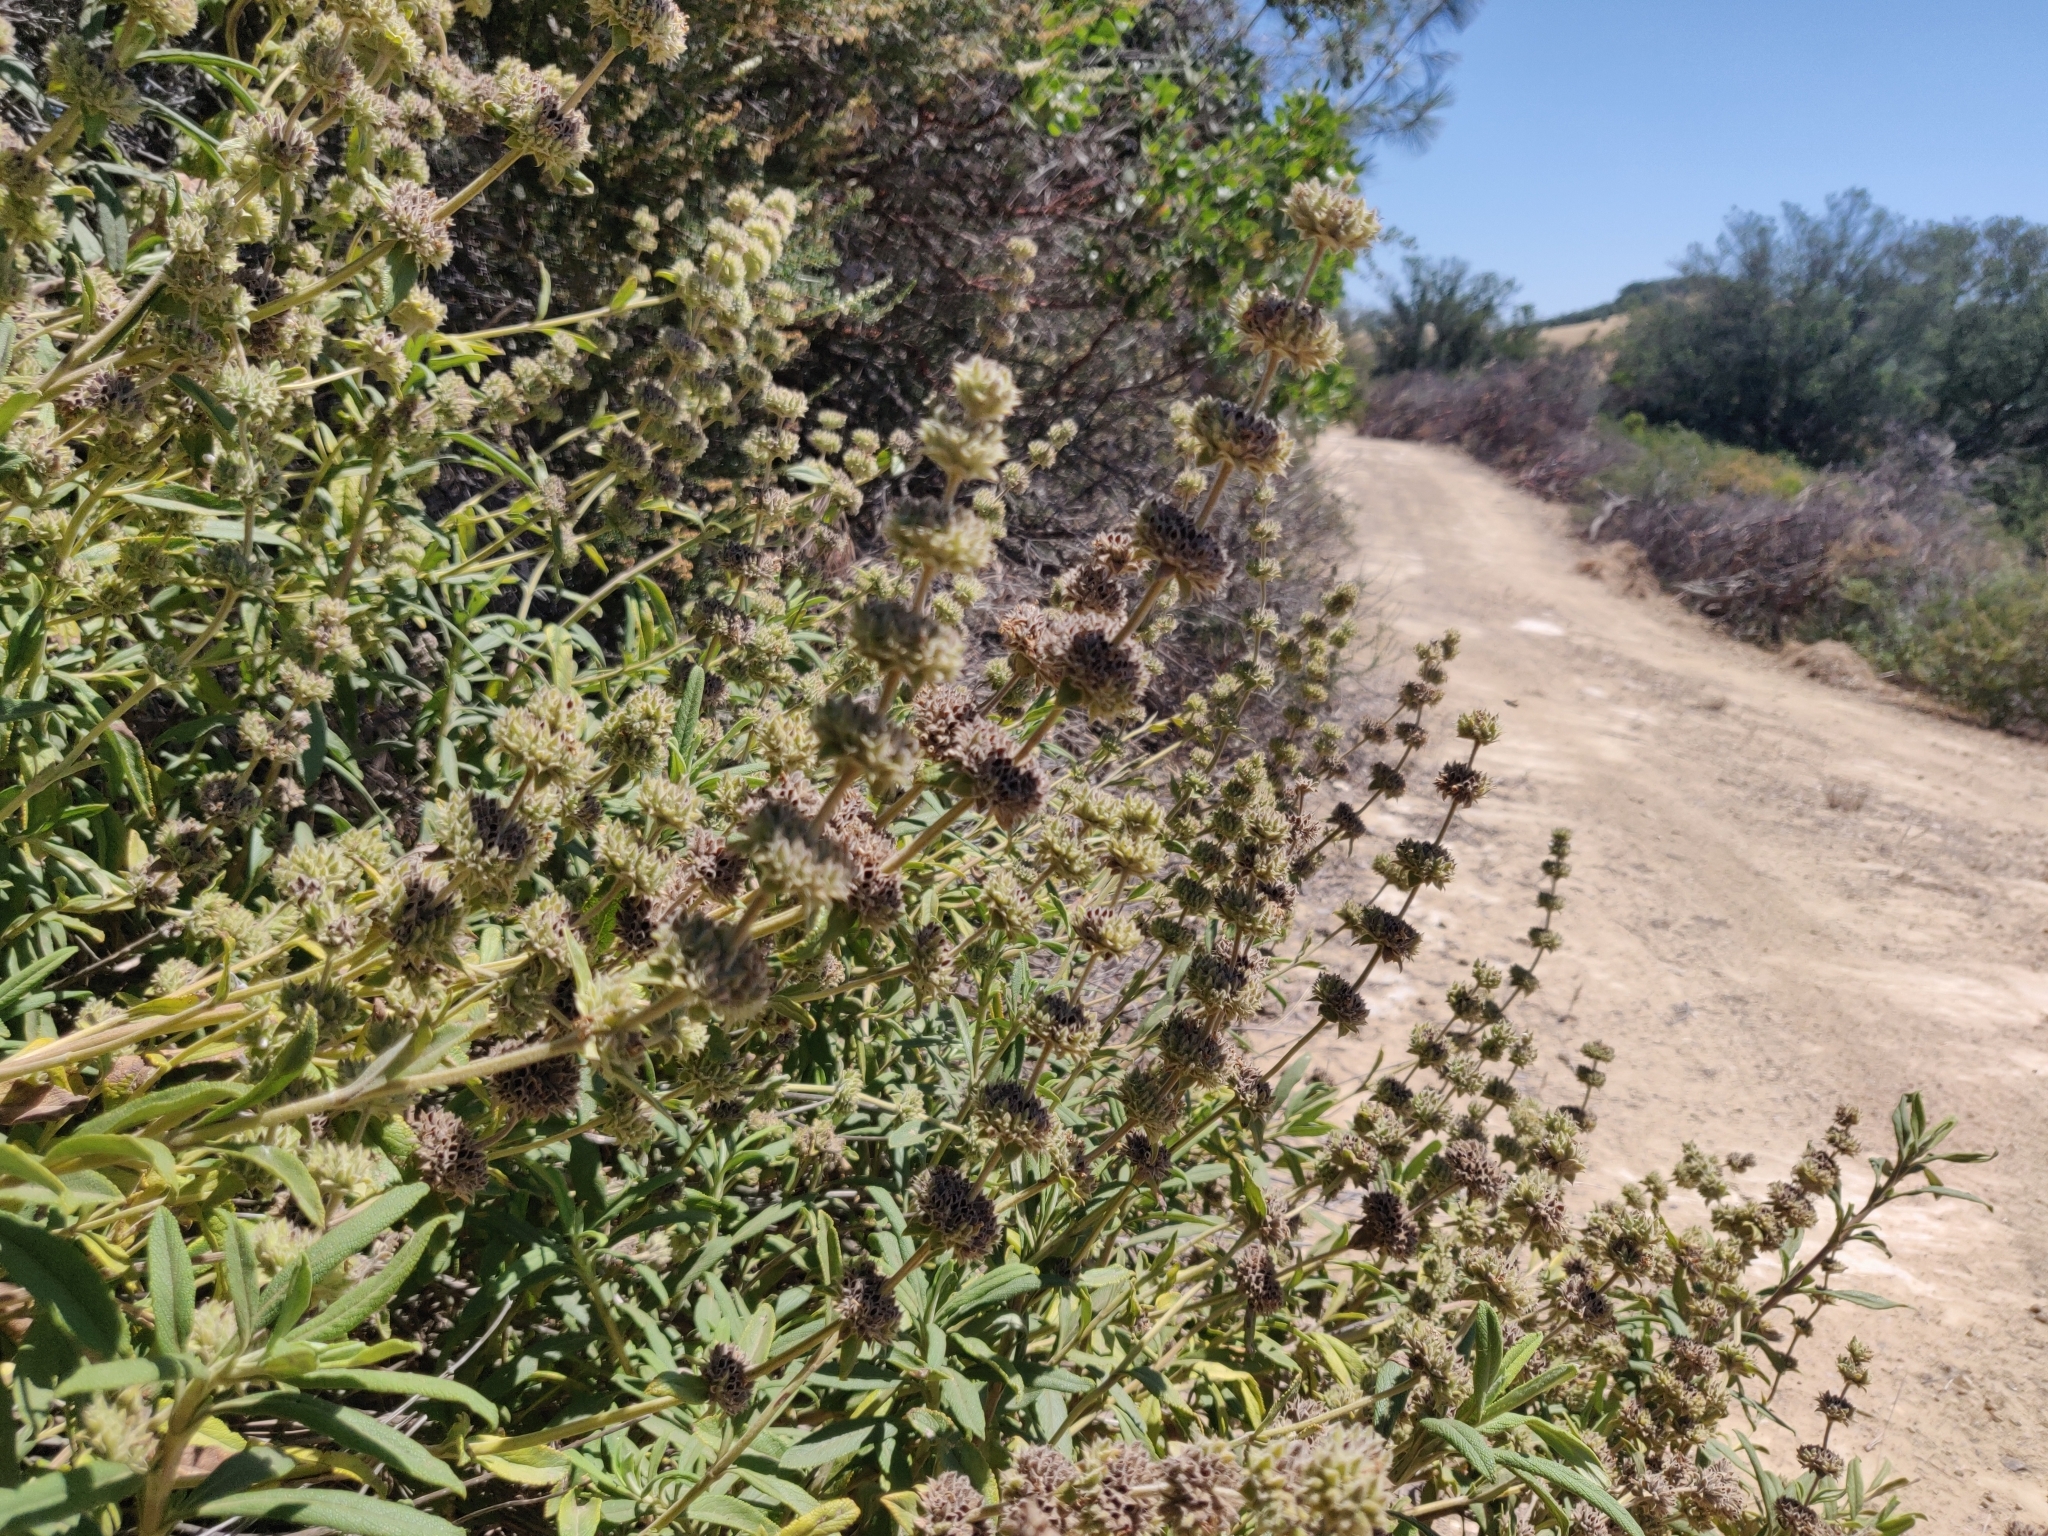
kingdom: Plantae
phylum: Tracheophyta
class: Magnoliopsida
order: Lamiales
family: Lamiaceae
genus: Salvia
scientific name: Salvia mellifera
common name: Black sage
